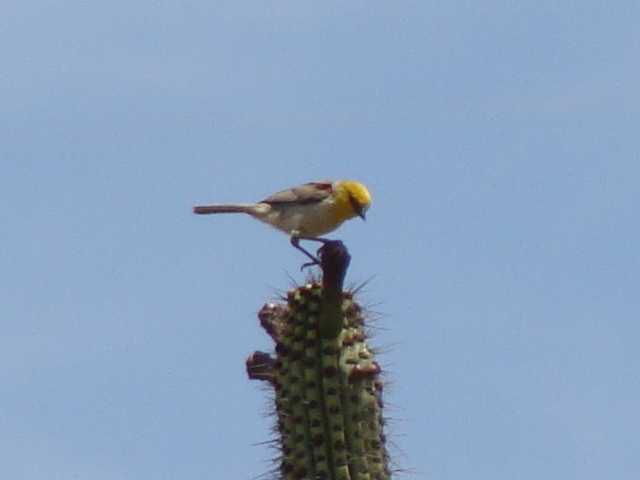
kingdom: Animalia
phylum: Chordata
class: Aves
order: Passeriformes
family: Remizidae
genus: Auriparus
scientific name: Auriparus flaviceps
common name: Verdin
